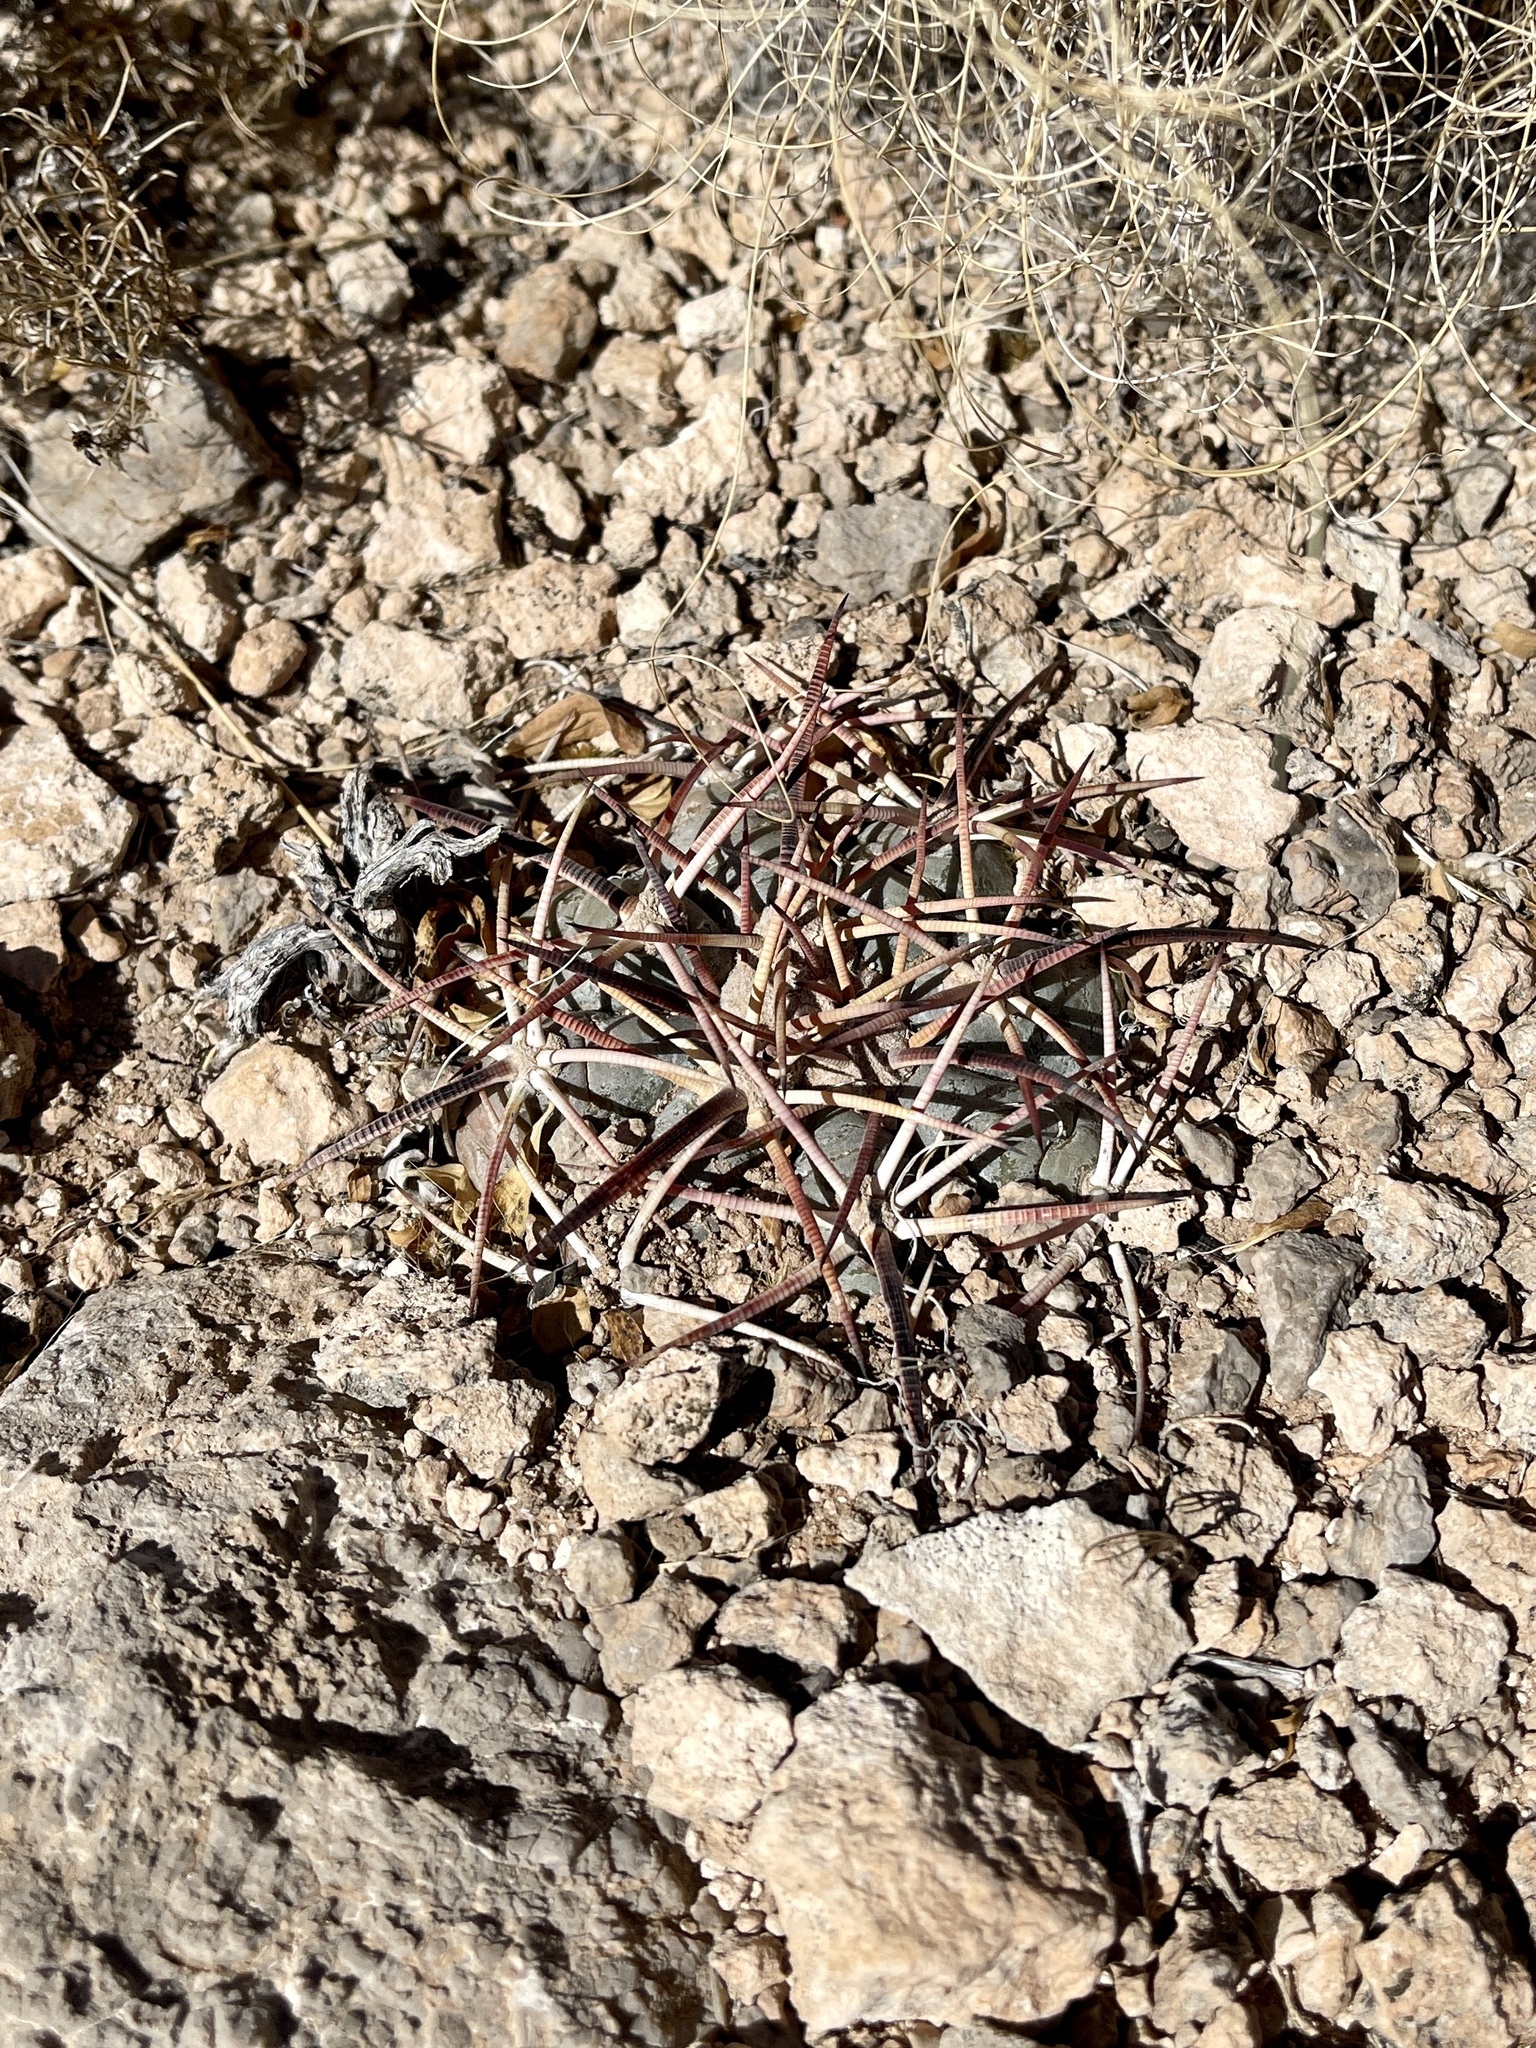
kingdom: Plantae
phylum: Tracheophyta
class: Magnoliopsida
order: Caryophyllales
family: Cactaceae
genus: Echinocactus
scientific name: Echinocactus horizonthalonius
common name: Devilshead
